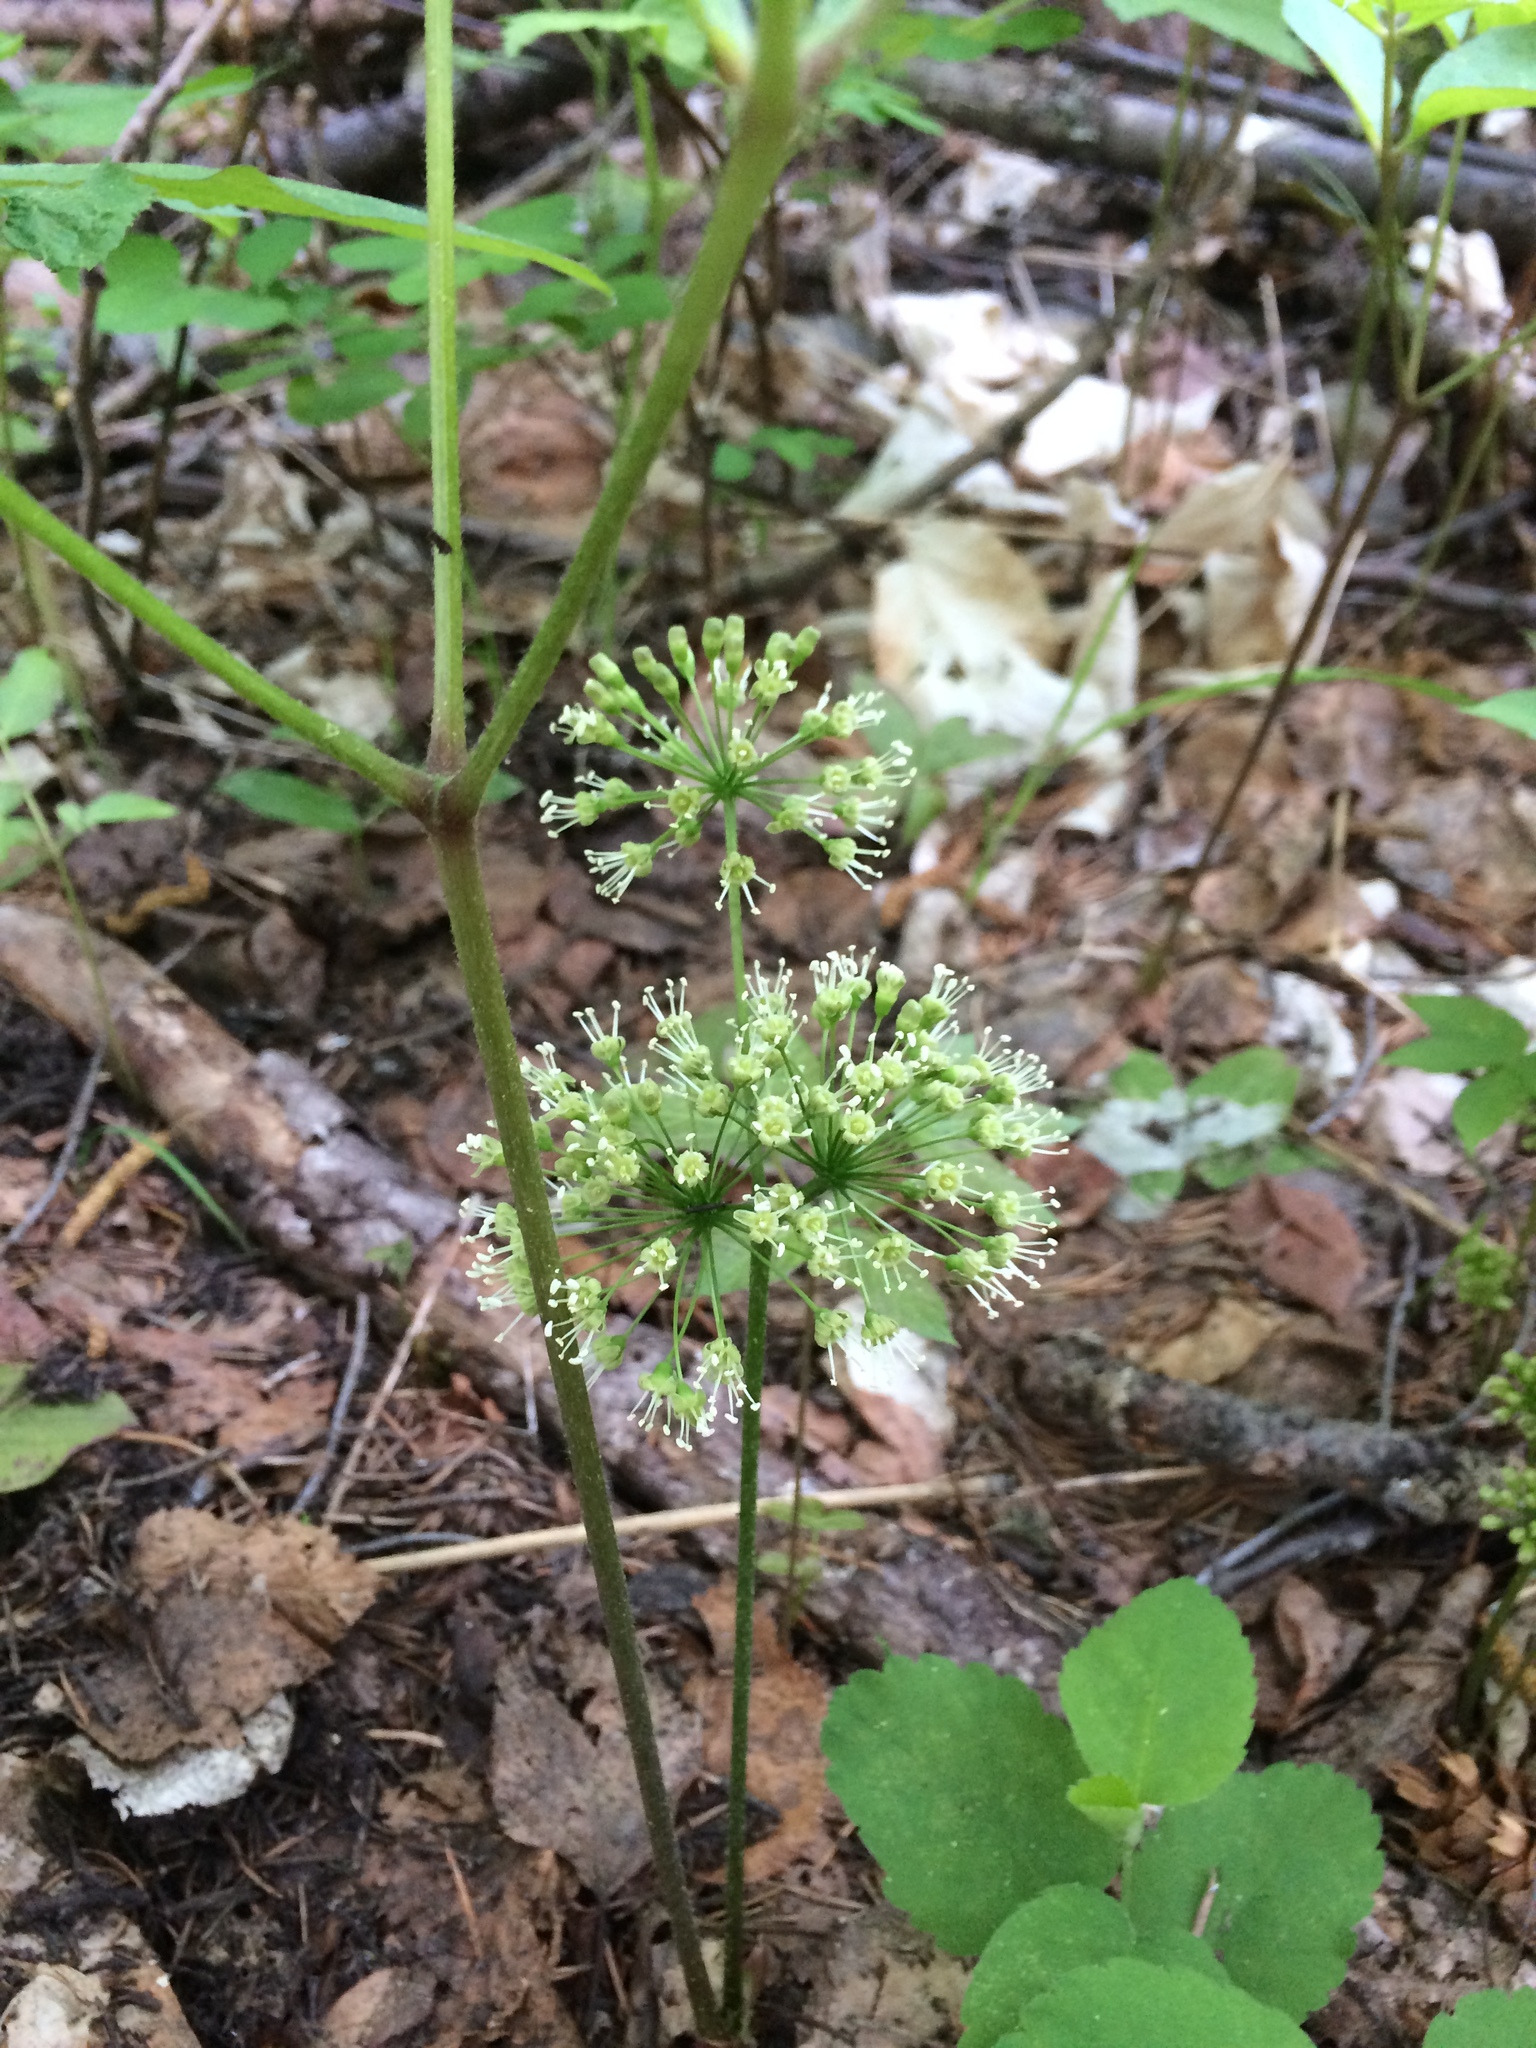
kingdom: Plantae
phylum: Tracheophyta
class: Magnoliopsida
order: Apiales
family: Araliaceae
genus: Aralia
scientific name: Aralia nudicaulis
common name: Wild sarsaparilla
